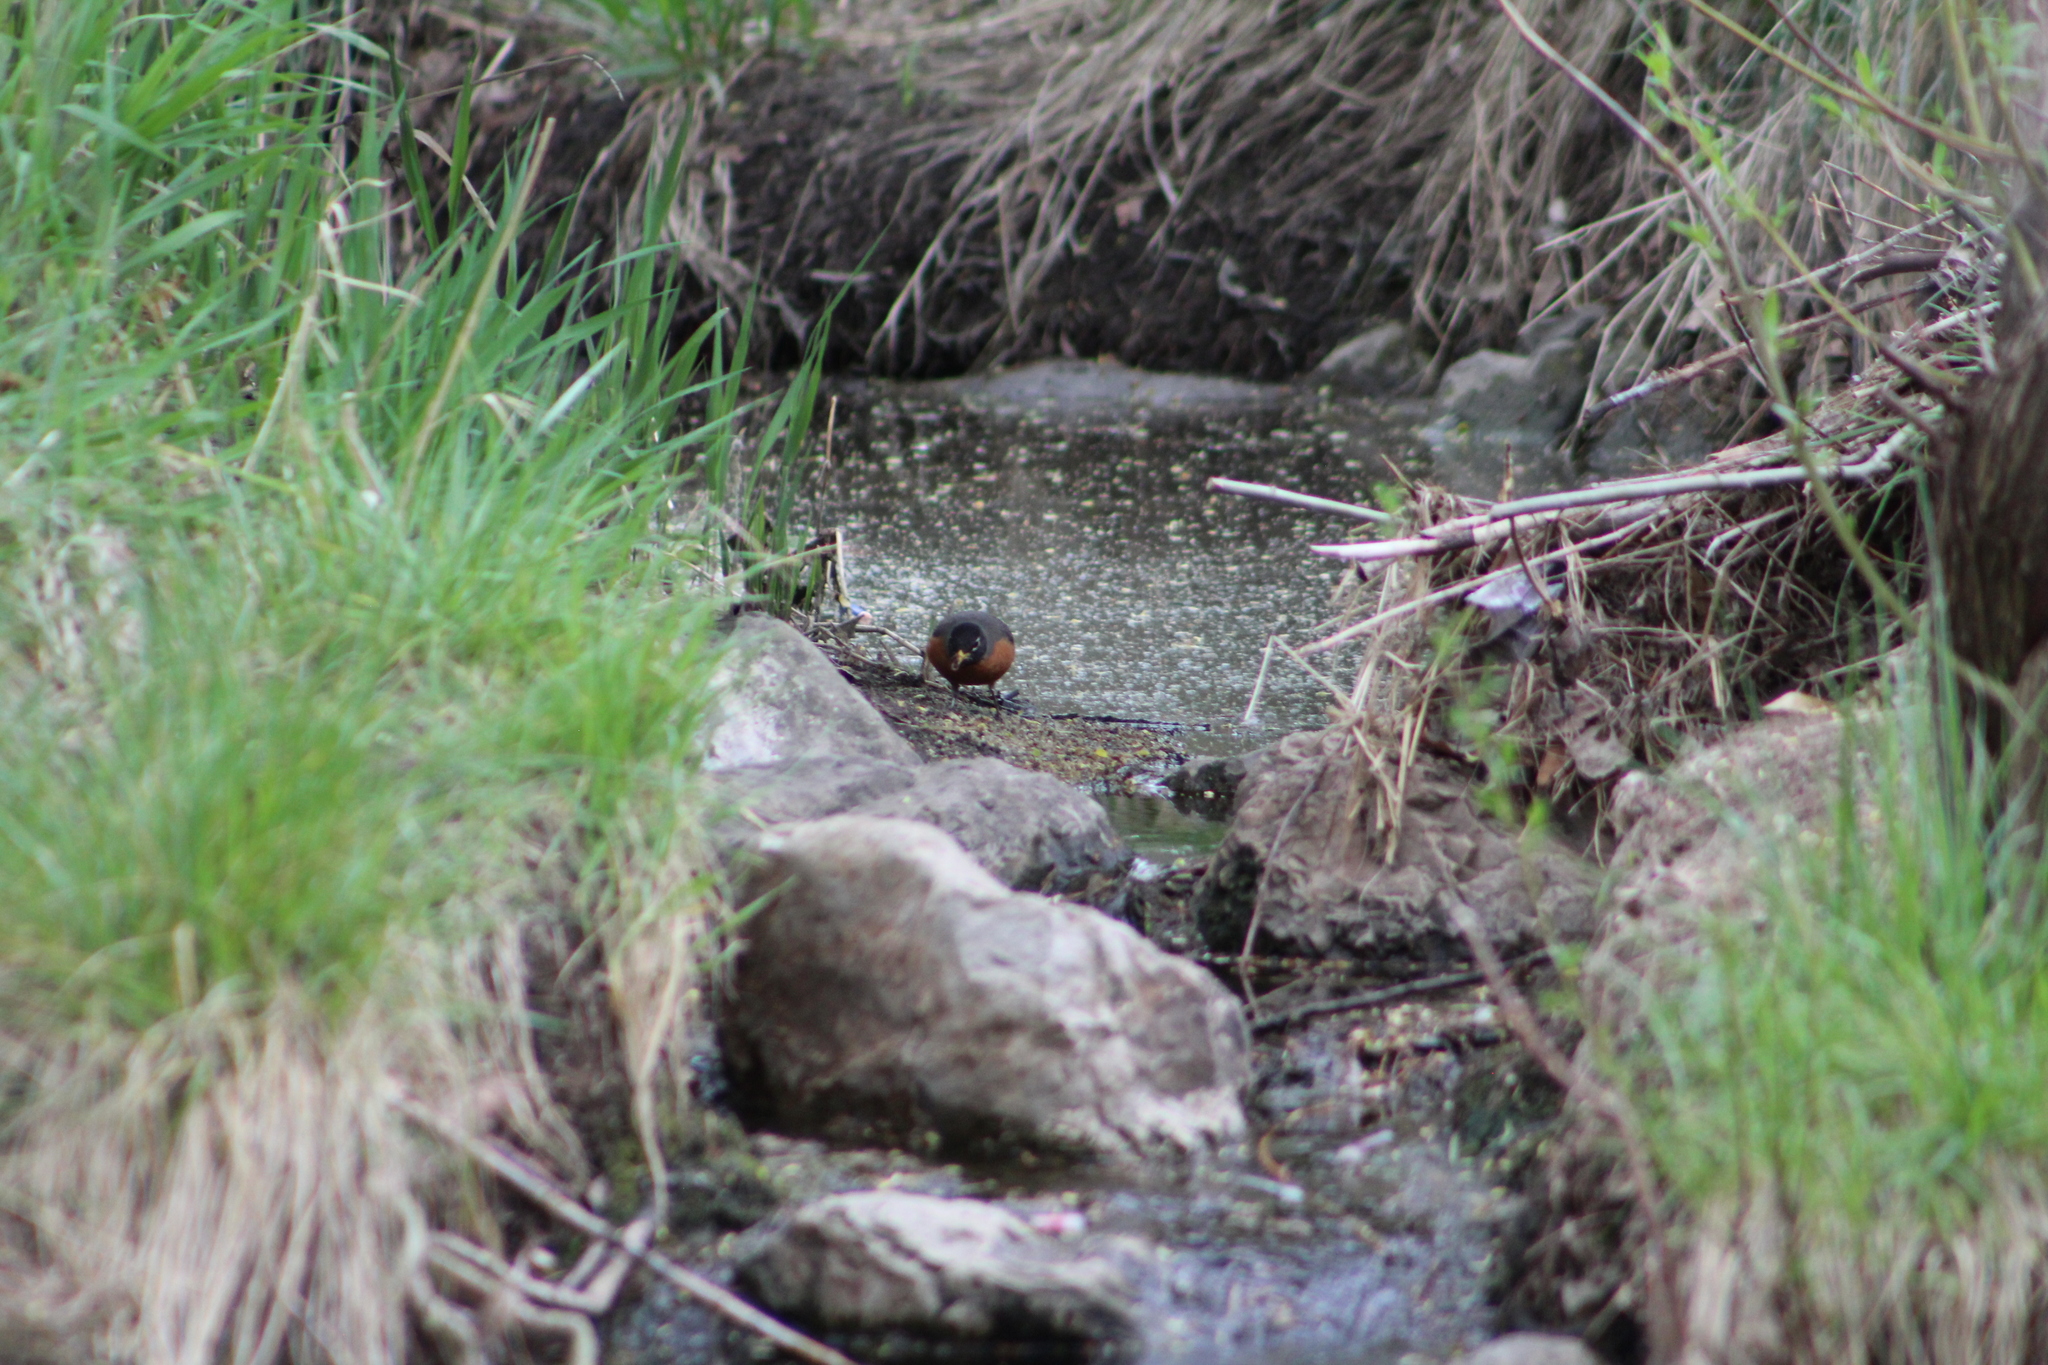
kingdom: Animalia
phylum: Chordata
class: Aves
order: Passeriformes
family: Turdidae
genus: Turdus
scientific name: Turdus migratorius
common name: American robin
